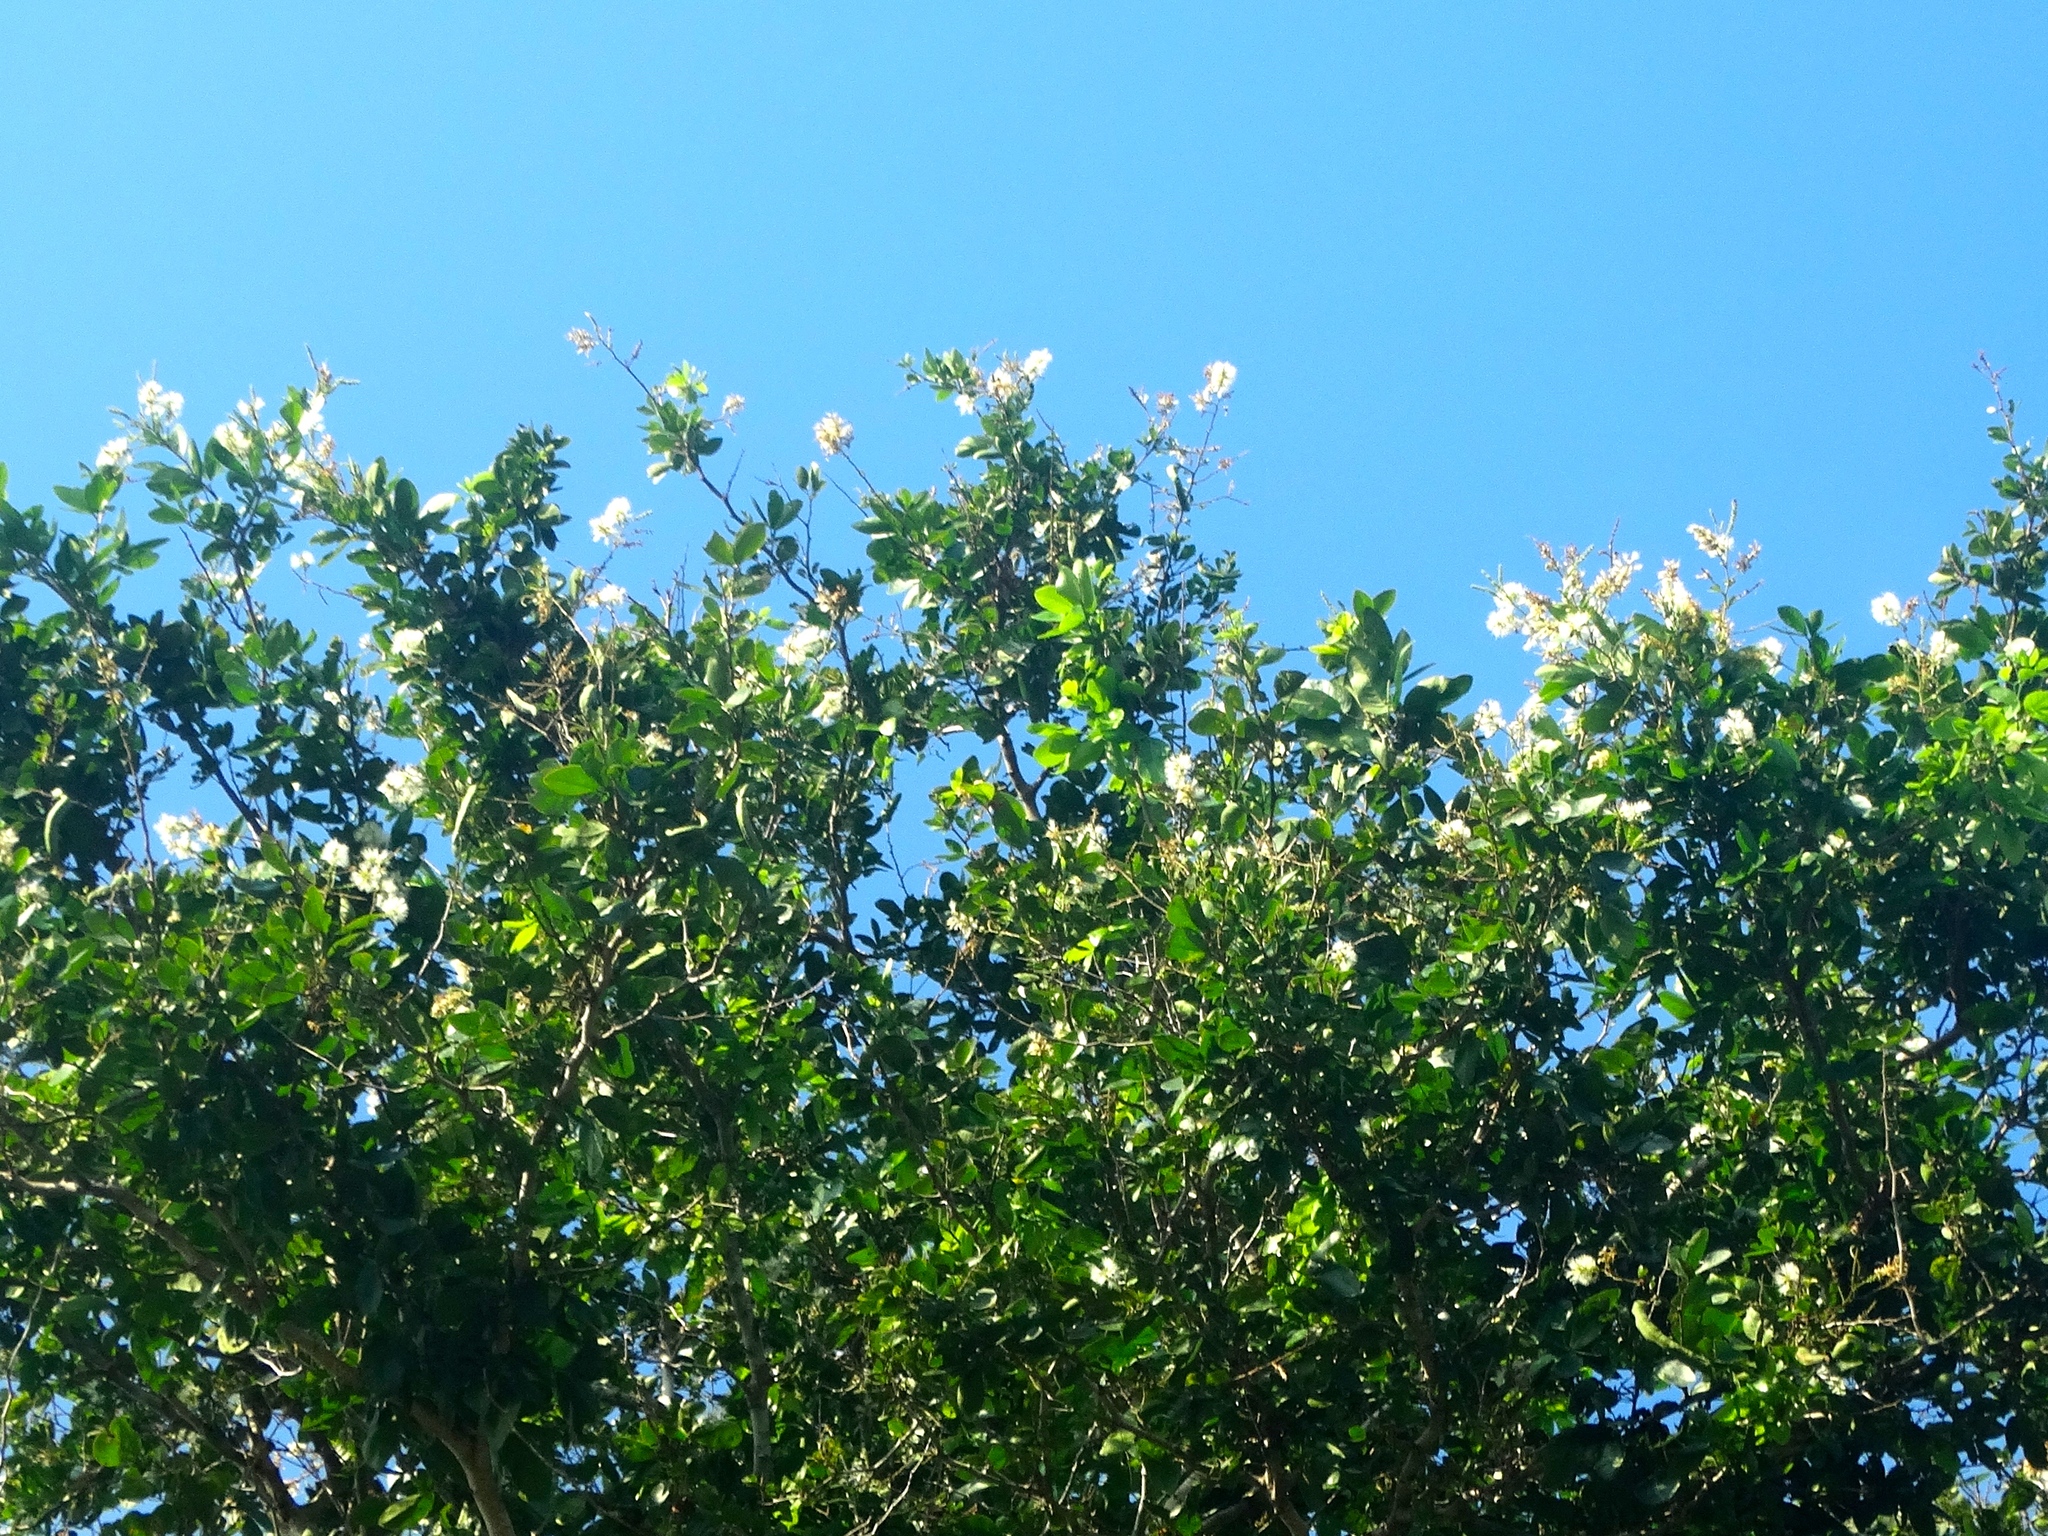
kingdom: Plantae
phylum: Tracheophyta
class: Magnoliopsida
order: Fabales
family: Fabaceae
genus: Pithecellobium
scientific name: Pithecellobium lanceolatum
